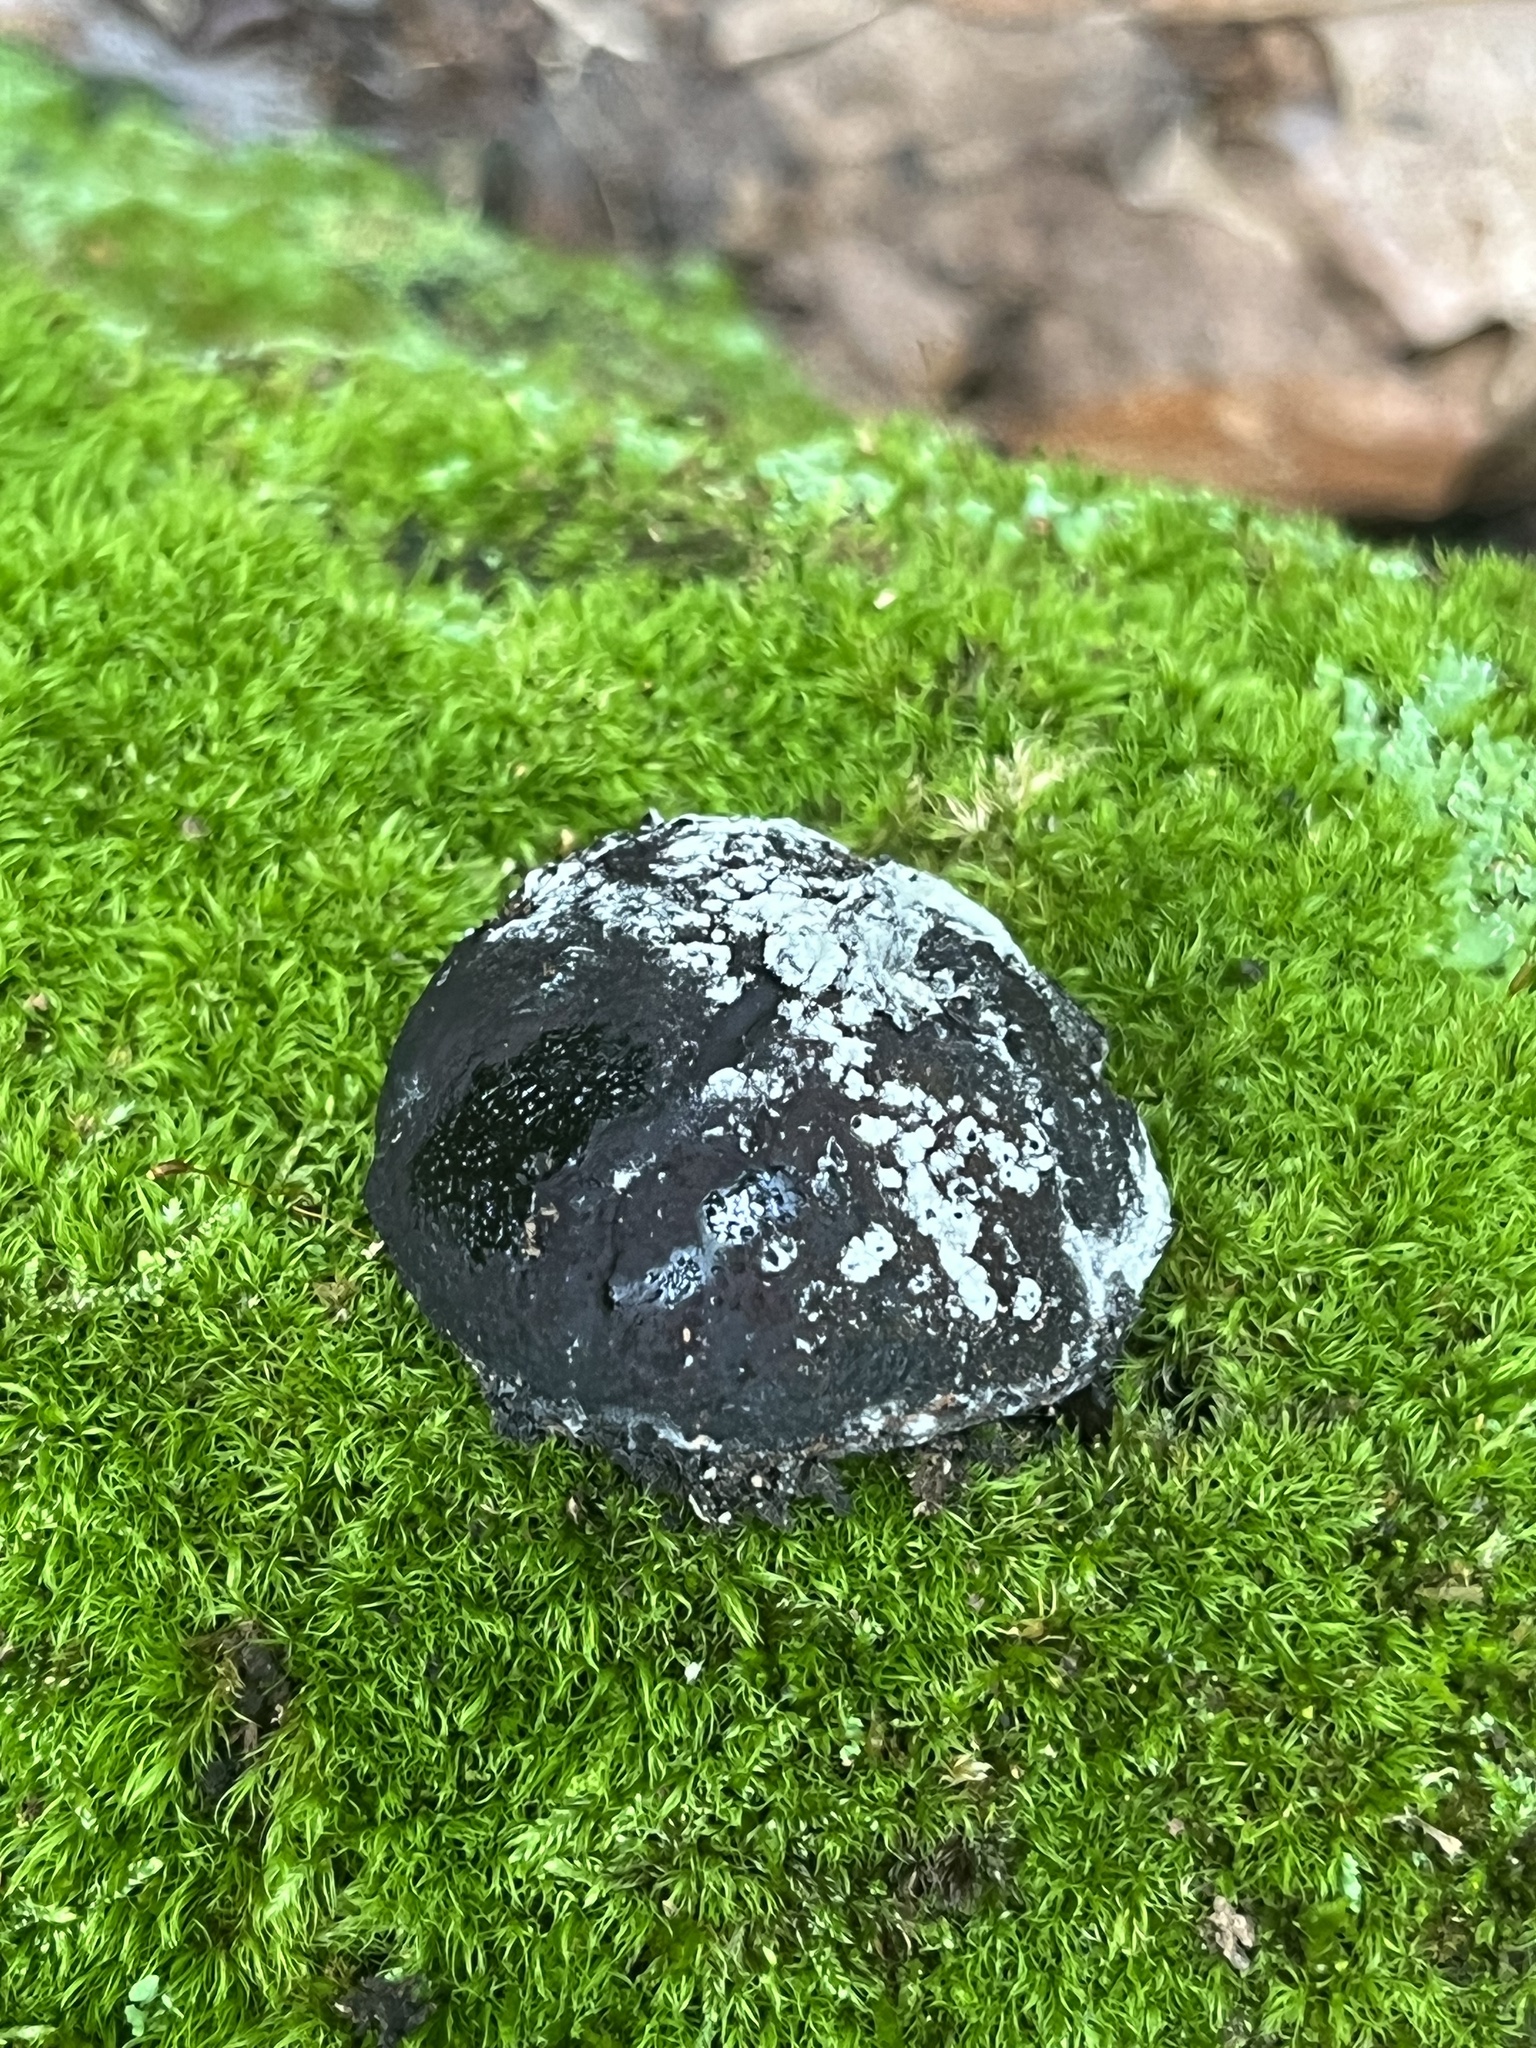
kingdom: Fungi
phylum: Ascomycota
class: Sordariomycetes
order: Boliniales
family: Boliniaceae
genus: Camarops
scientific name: Camarops petersii
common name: Dog's nose fungus
